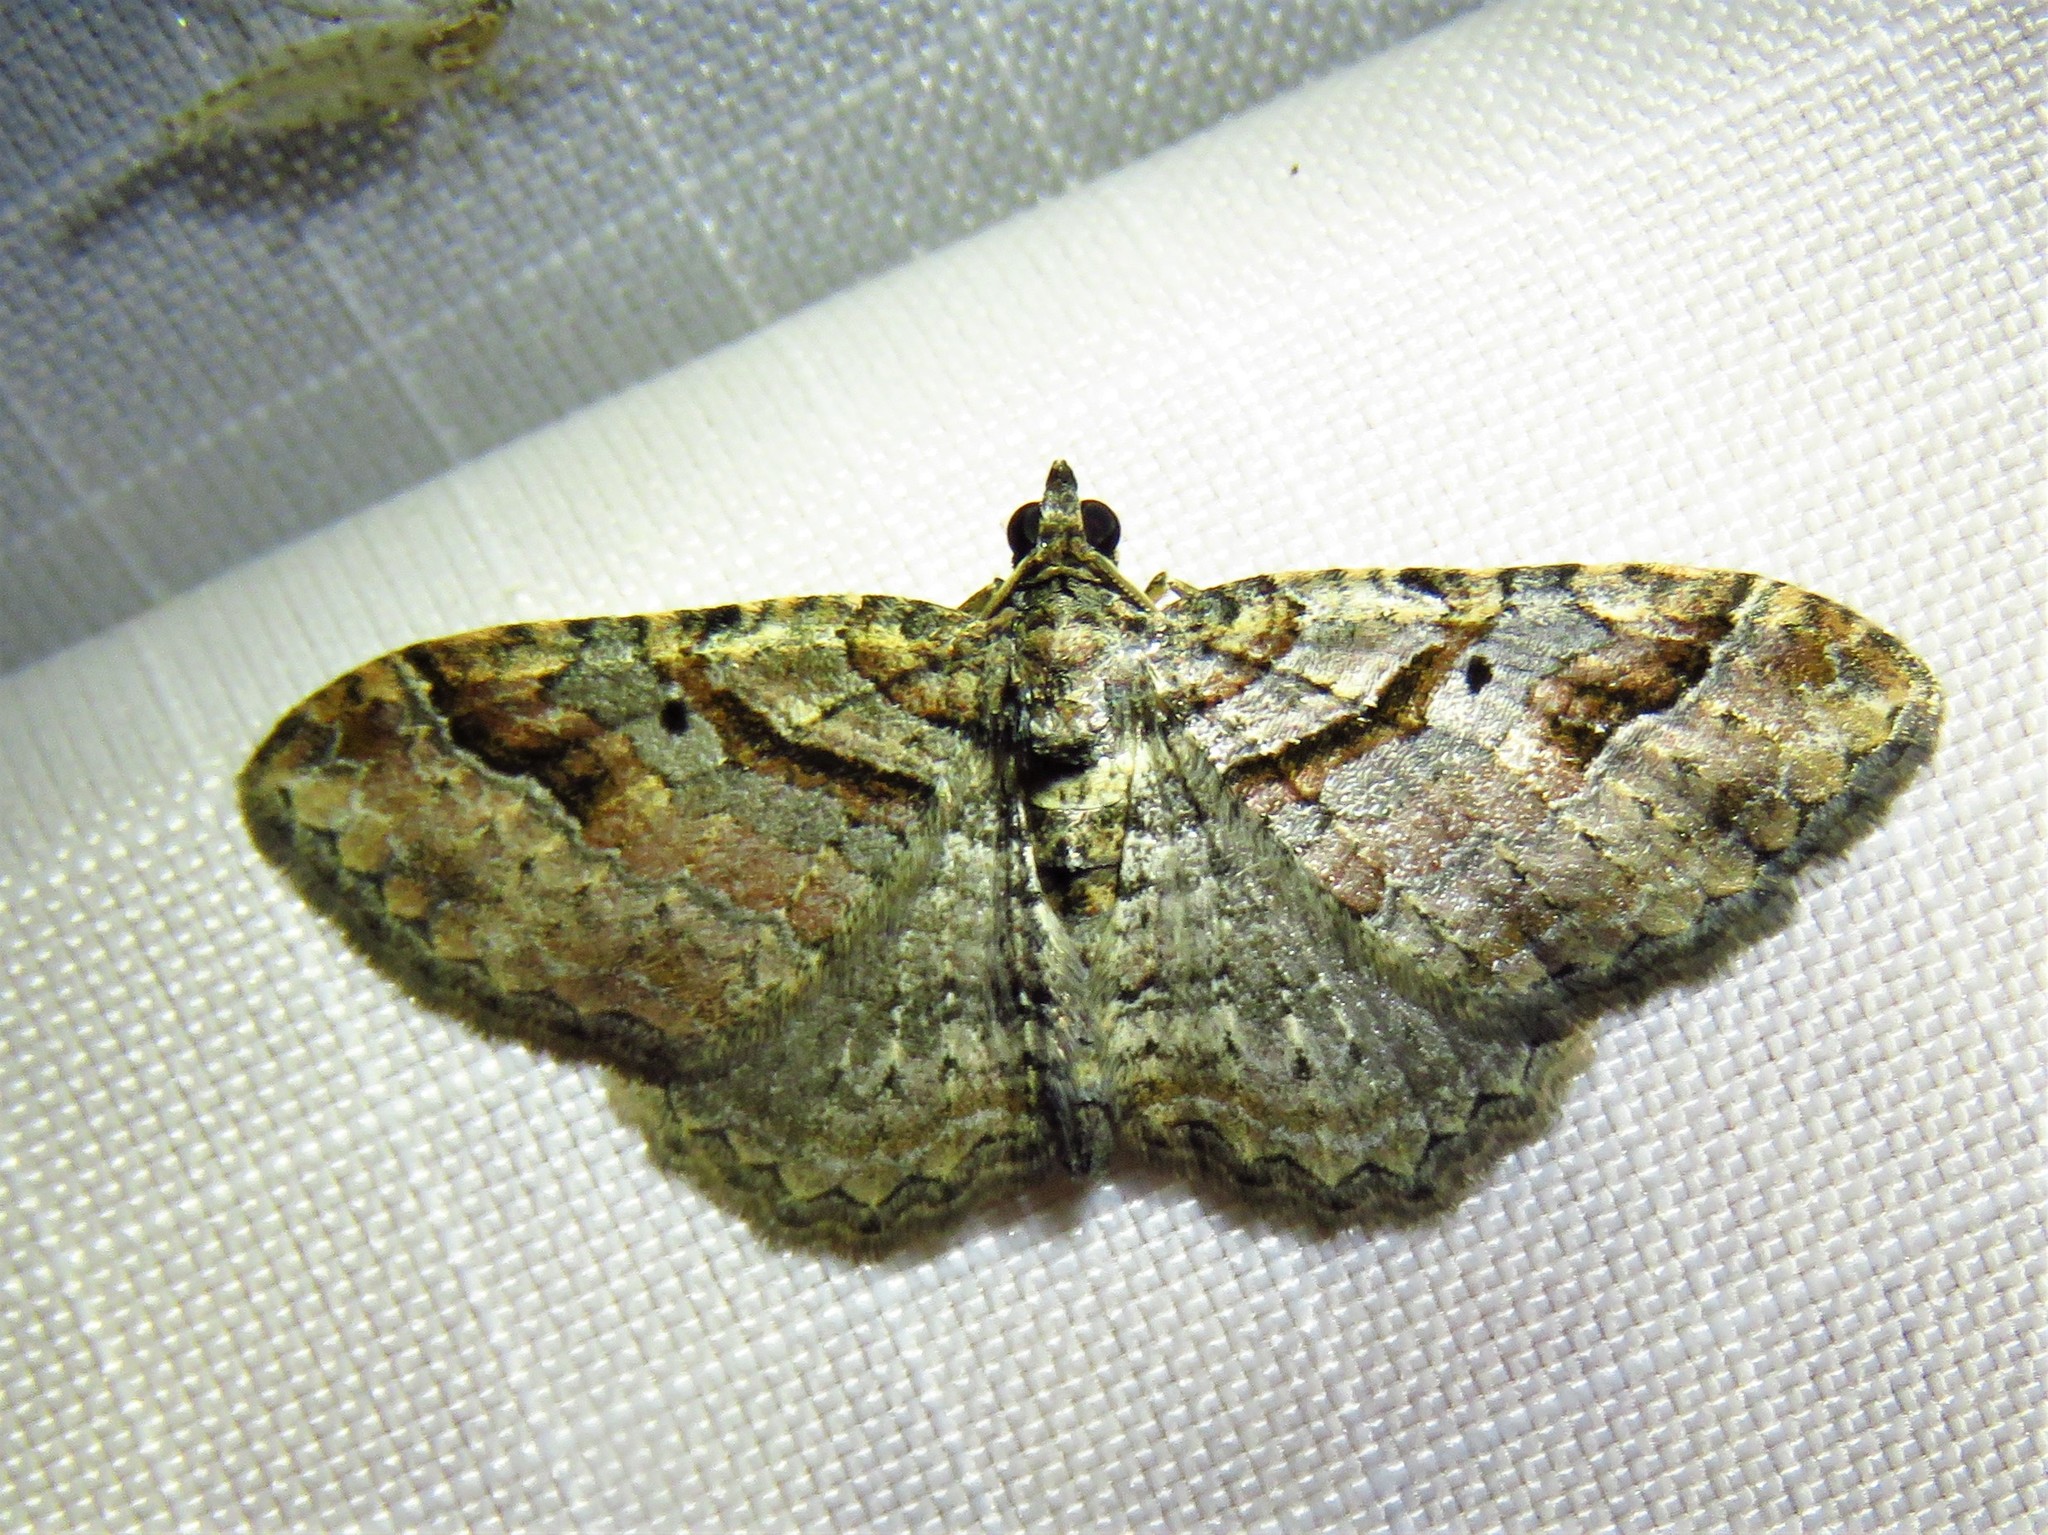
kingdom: Animalia
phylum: Arthropoda
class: Insecta
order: Lepidoptera
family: Geometridae
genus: Costaconvexa
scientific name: Costaconvexa centrostrigaria
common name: Bent-line carpet
